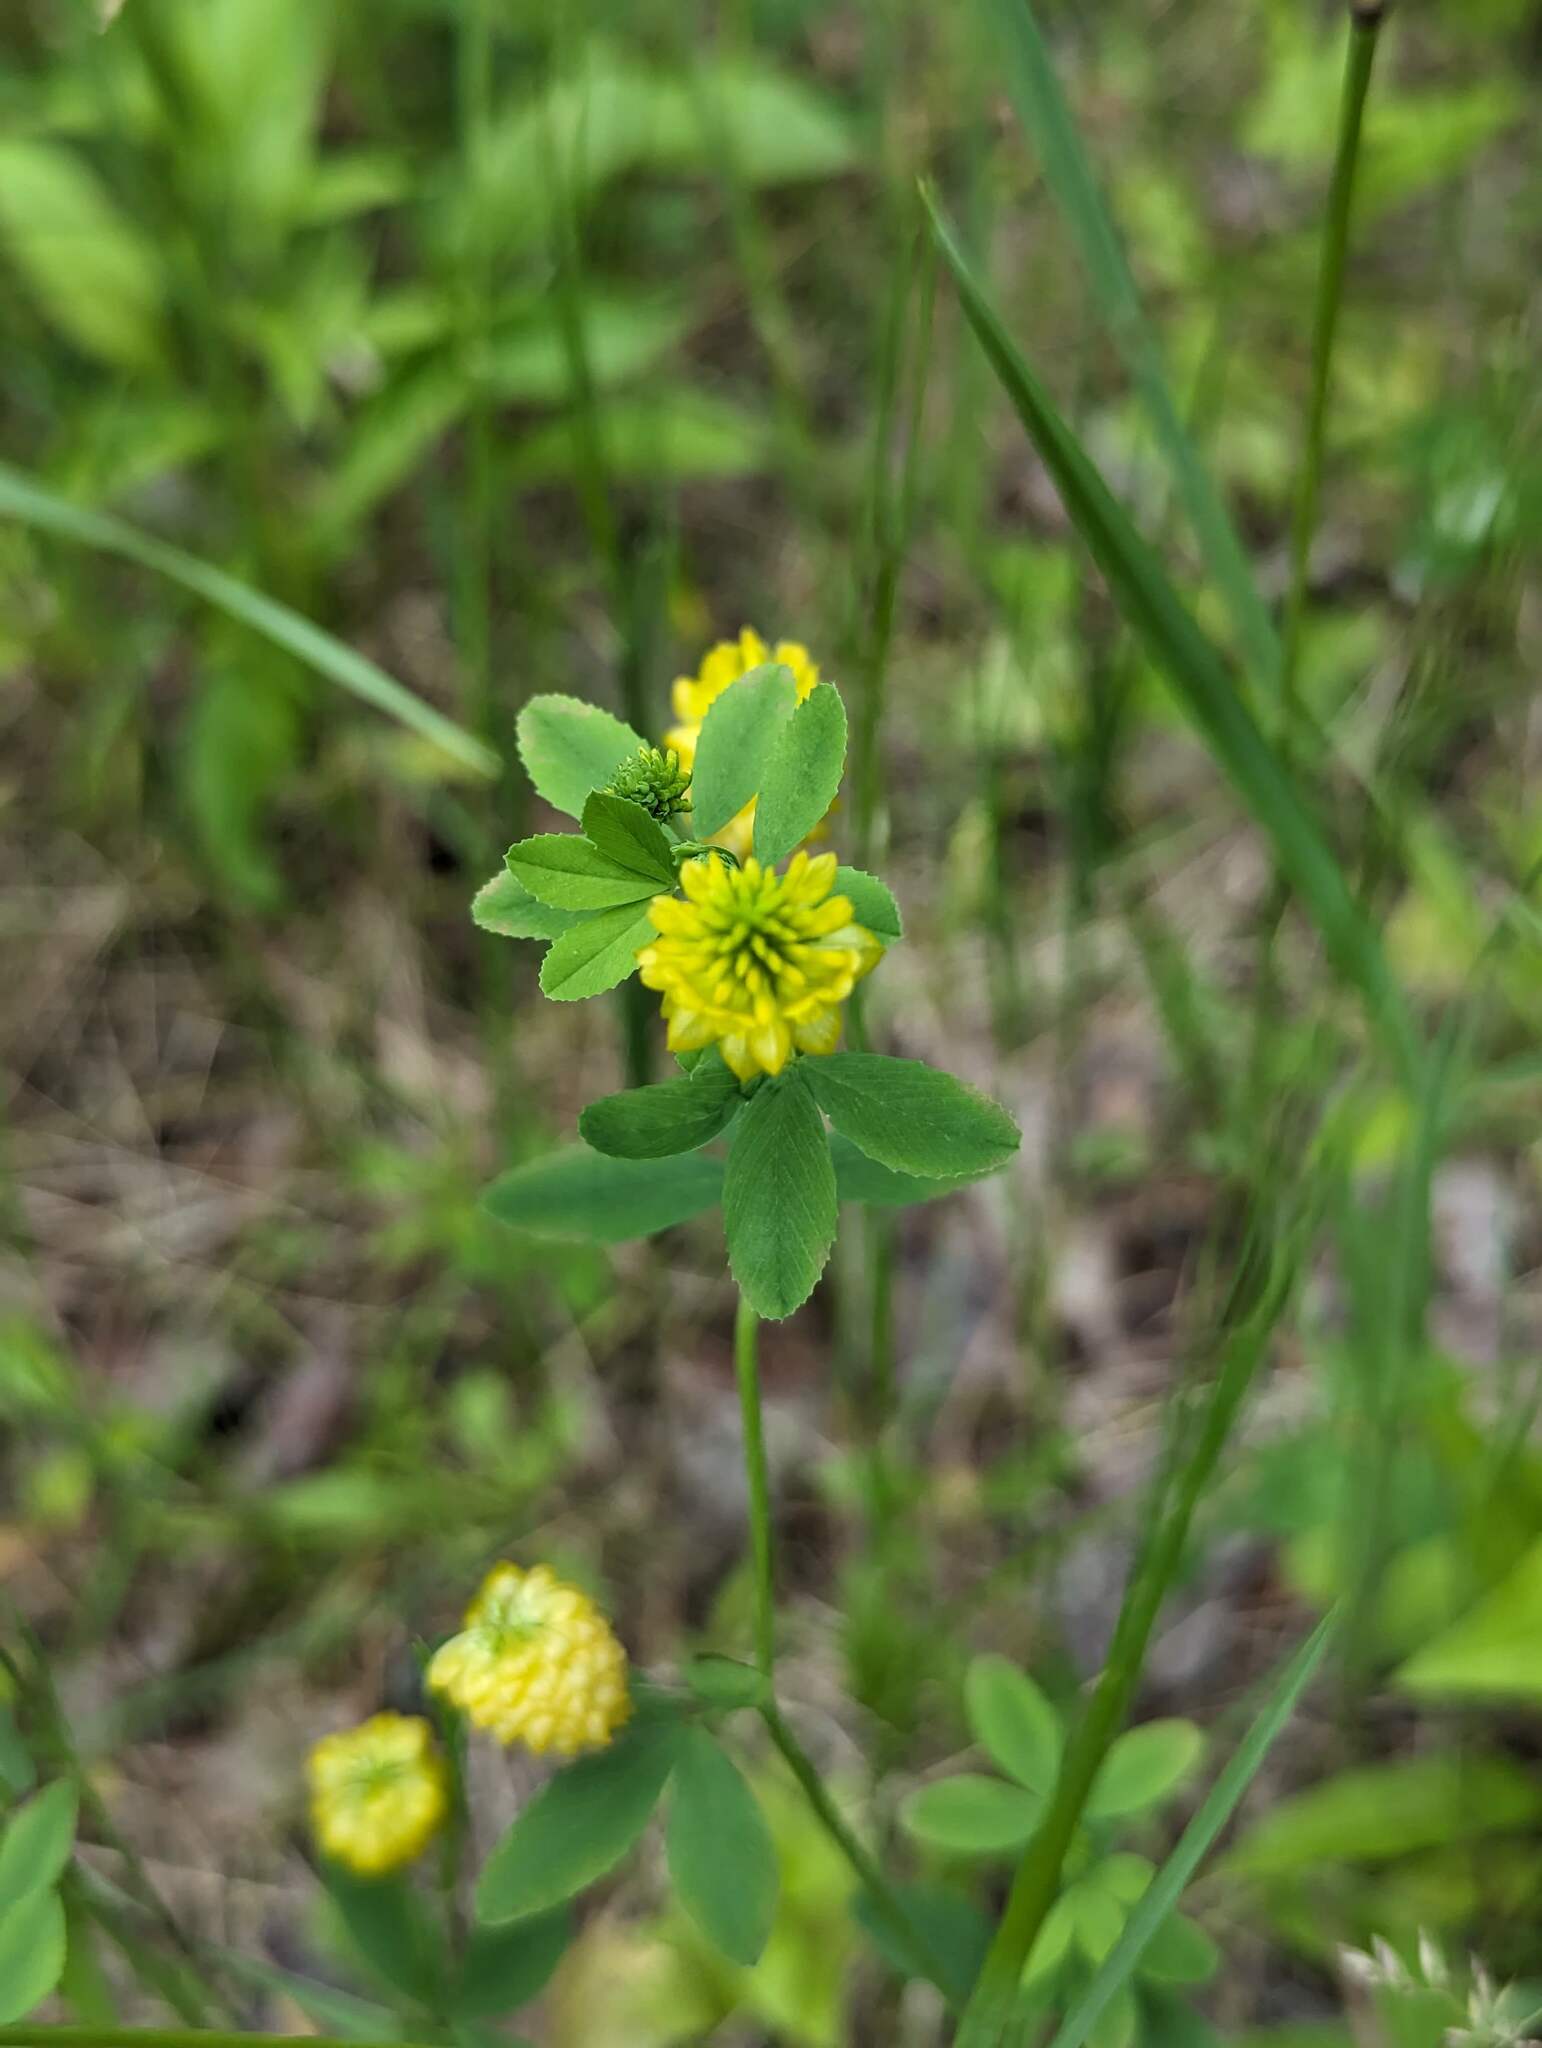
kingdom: Plantae
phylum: Tracheophyta
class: Magnoliopsida
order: Fabales
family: Fabaceae
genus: Trifolium
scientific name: Trifolium aureum
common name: Golden clover
